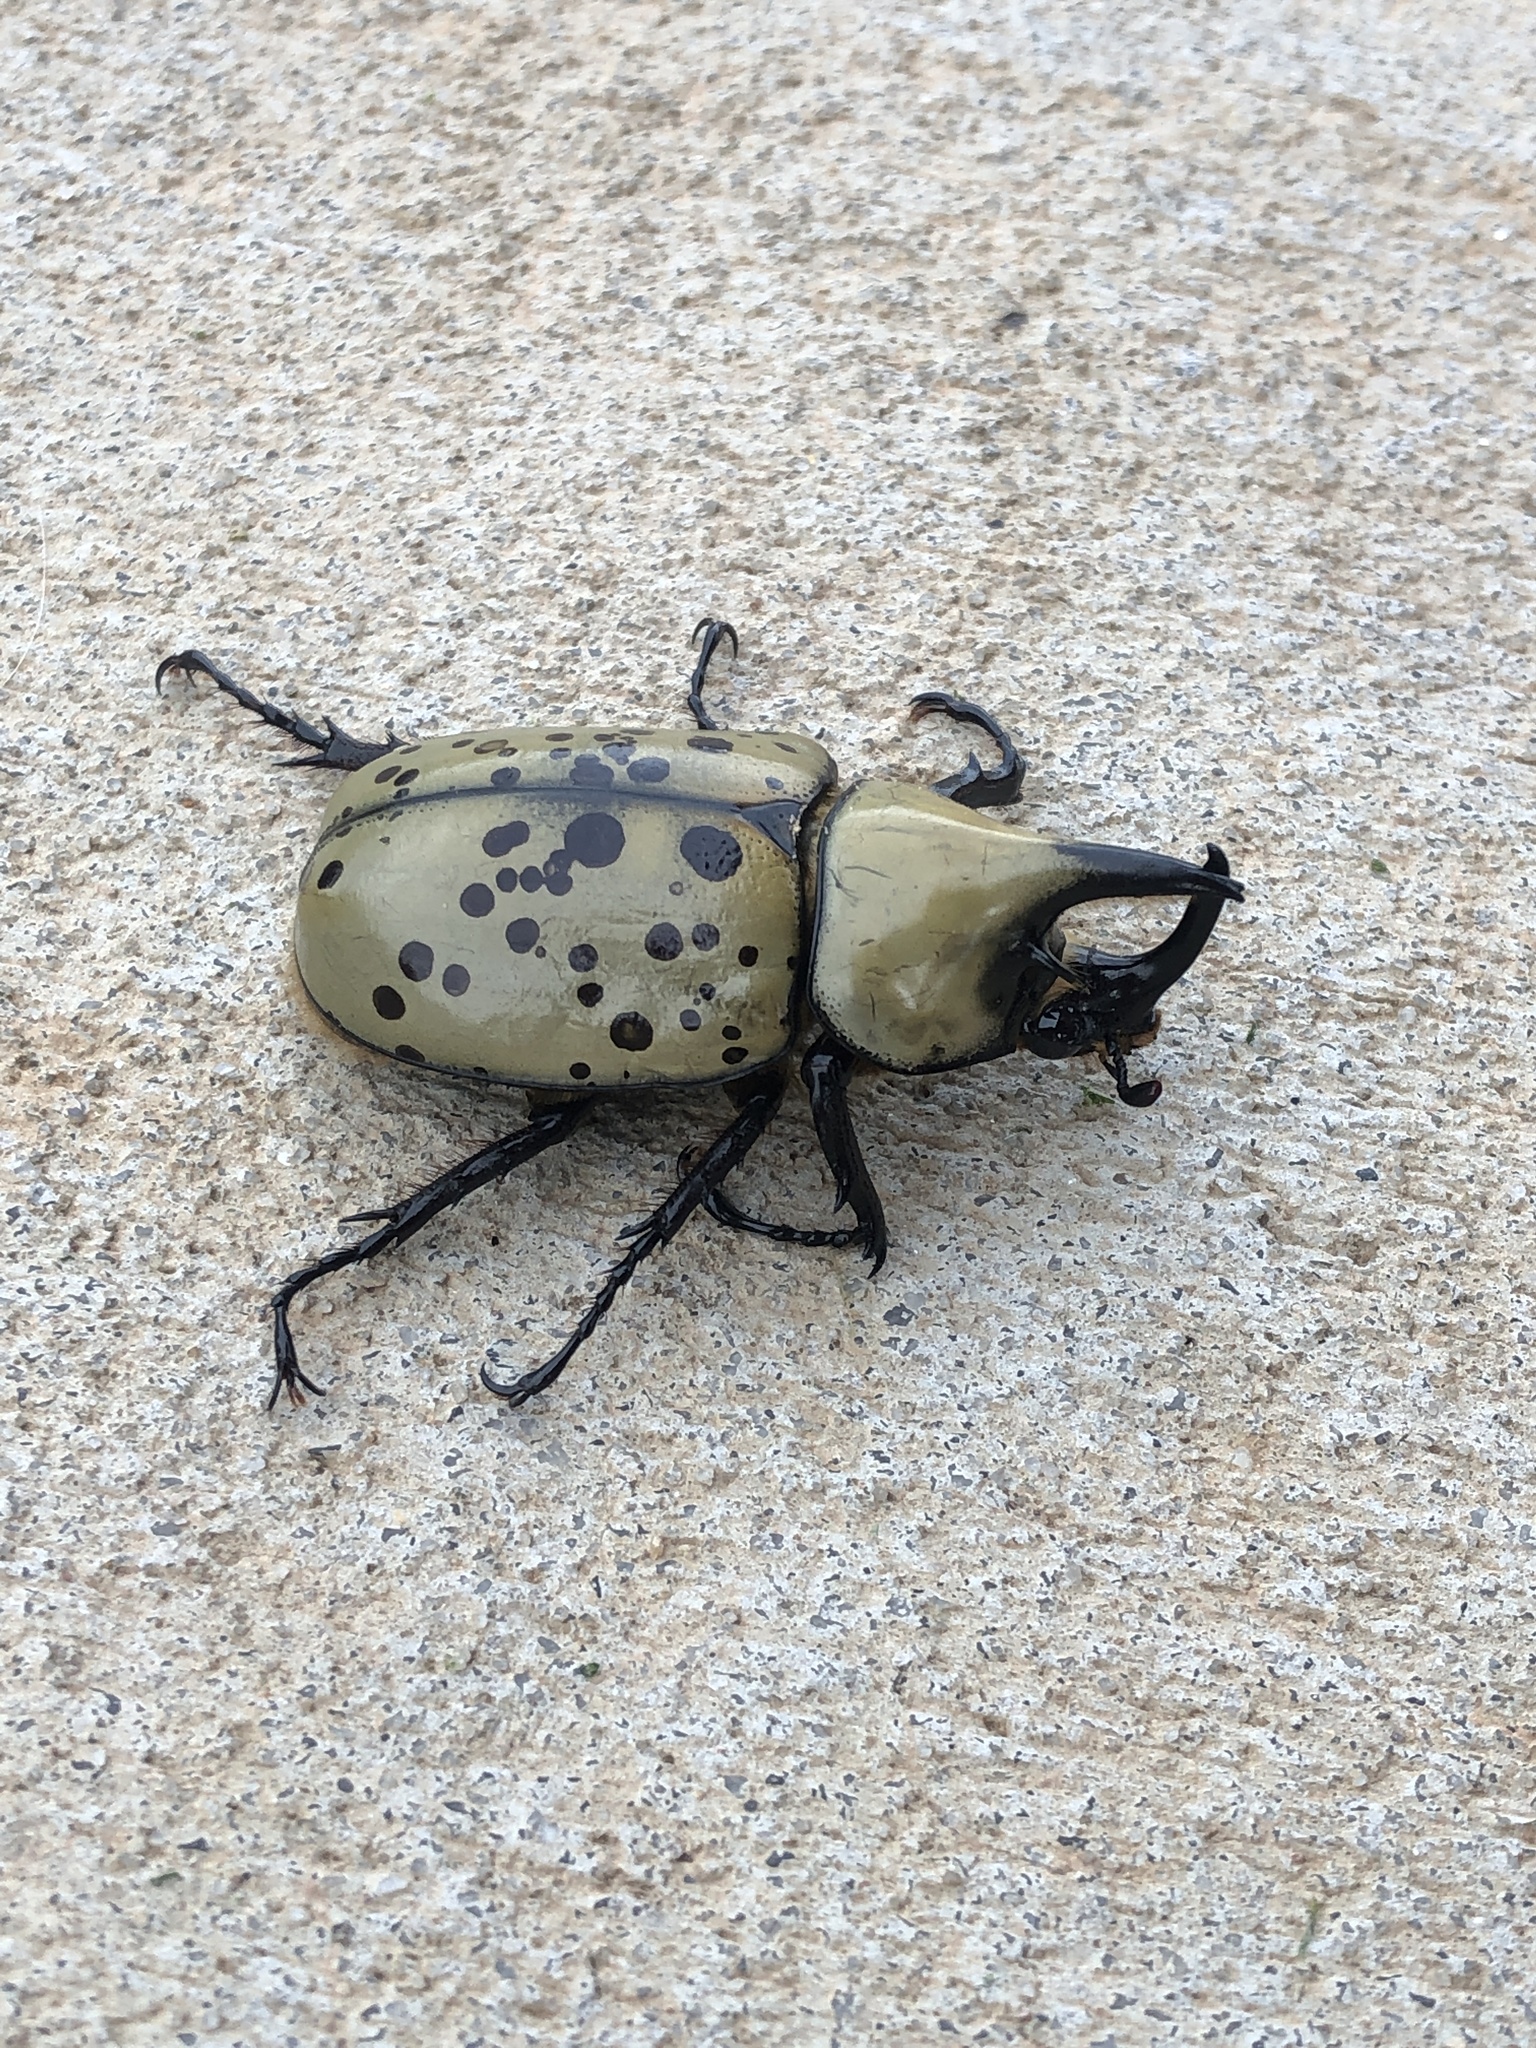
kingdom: Animalia
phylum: Arthropoda
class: Insecta
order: Coleoptera
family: Scarabaeidae
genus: Dynastes
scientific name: Dynastes tityus
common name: Eastern hercules beetle
